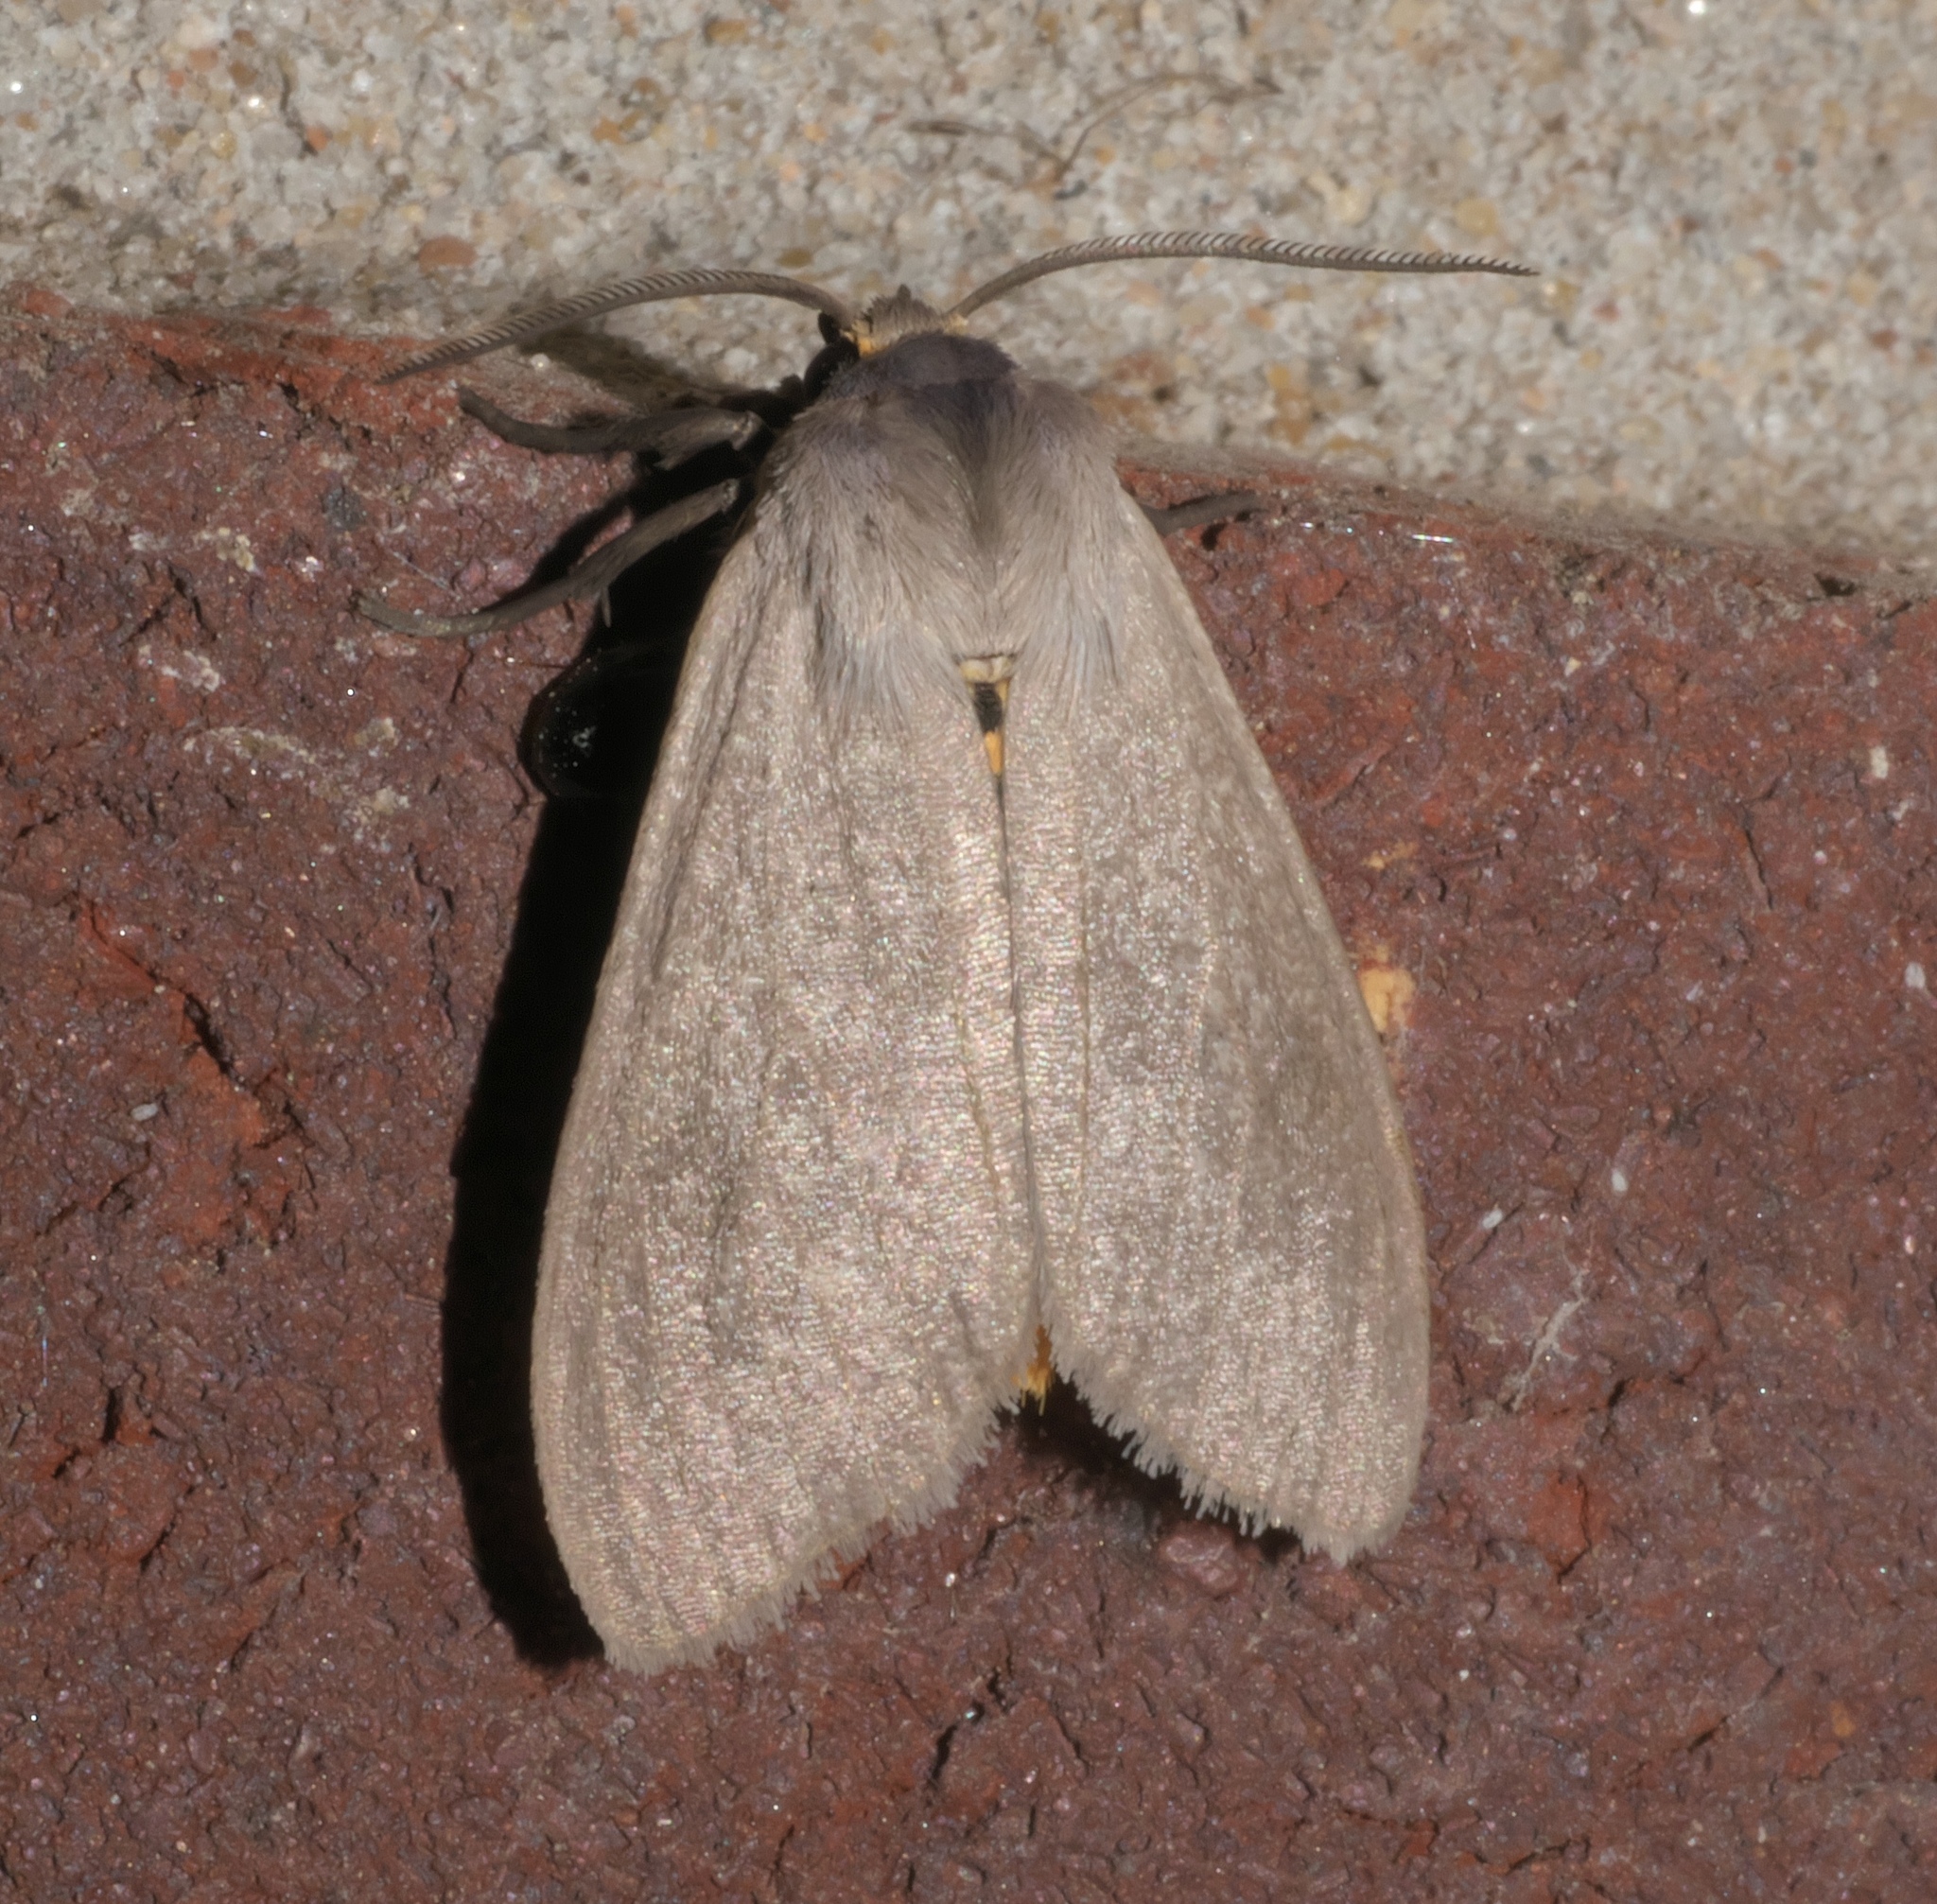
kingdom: Animalia
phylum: Arthropoda
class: Insecta
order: Lepidoptera
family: Erebidae
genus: Euchaetes
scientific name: Euchaetes egle
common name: Milkweed tussock moth
